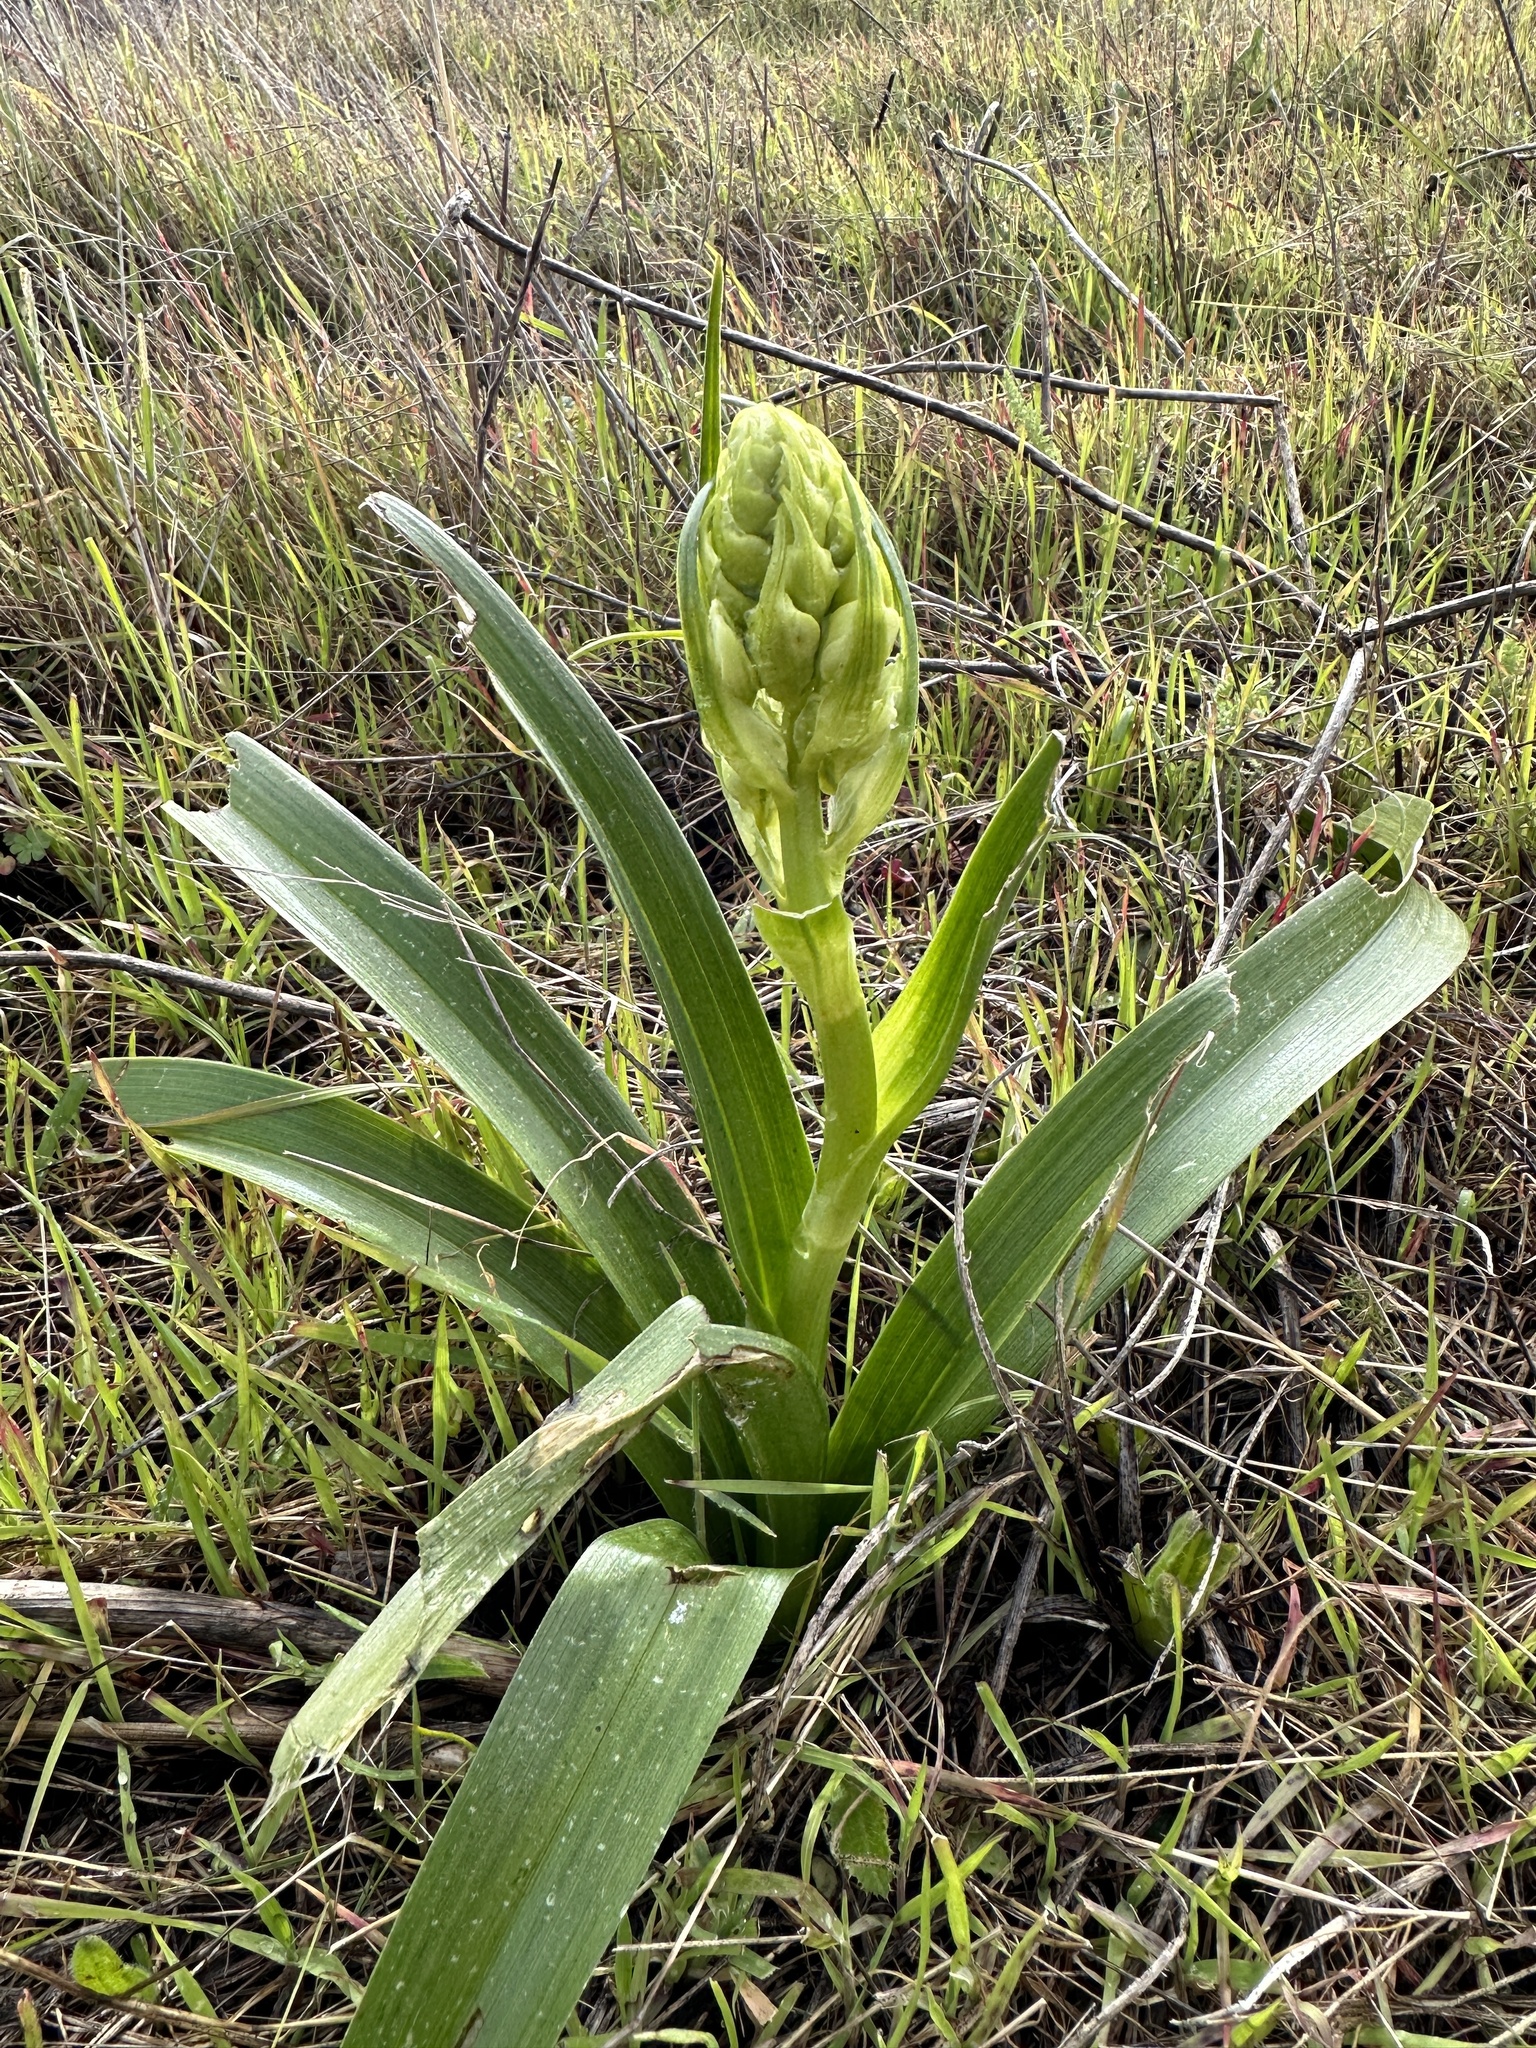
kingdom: Plantae
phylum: Tracheophyta
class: Liliopsida
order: Liliales
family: Melanthiaceae
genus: Toxicoscordion
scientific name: Toxicoscordion fremontii
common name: Fremont's death camas
